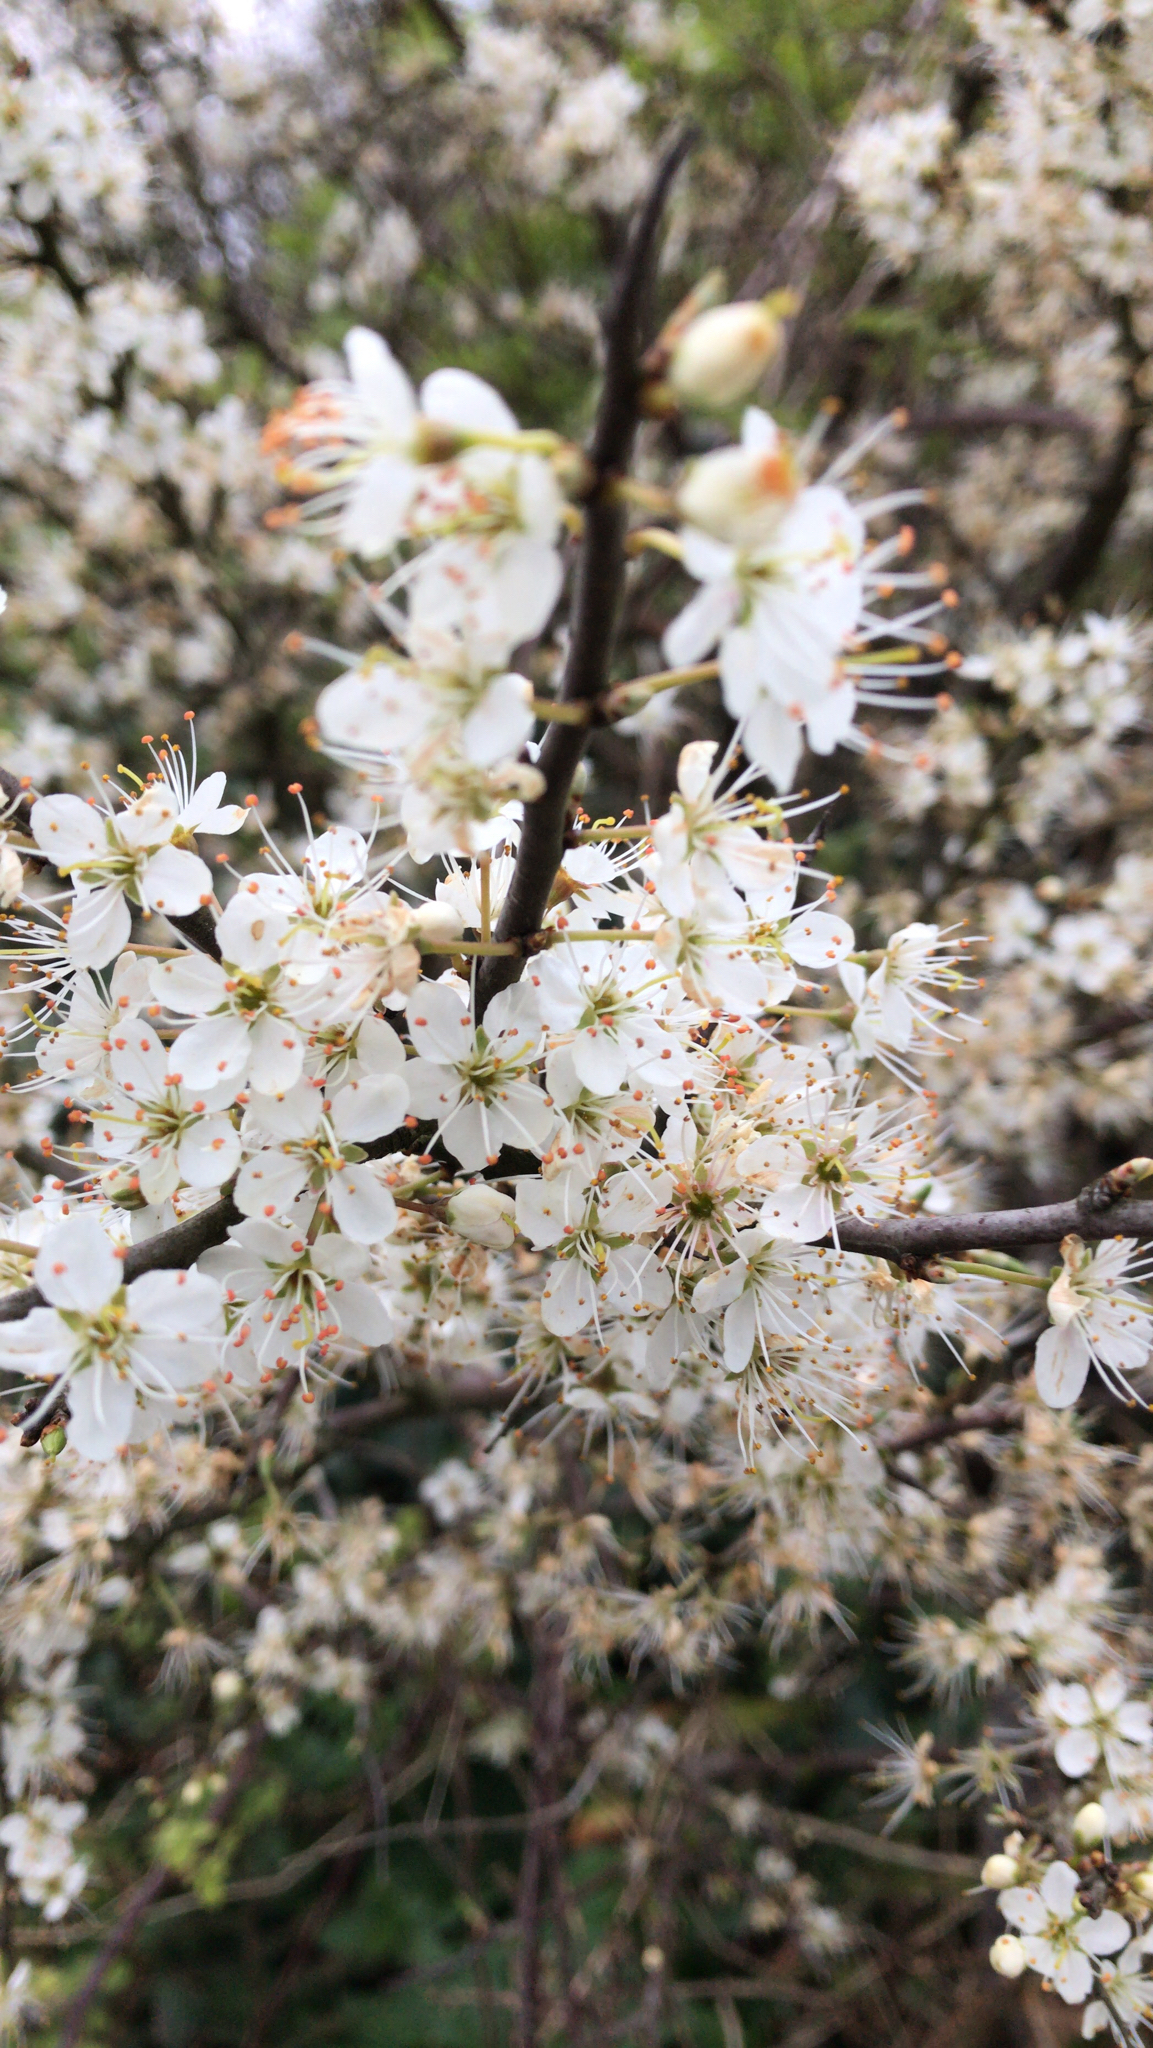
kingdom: Plantae
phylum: Tracheophyta
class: Magnoliopsida
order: Rosales
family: Rosaceae
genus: Prunus
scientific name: Prunus spinosa
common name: Blackthorn
